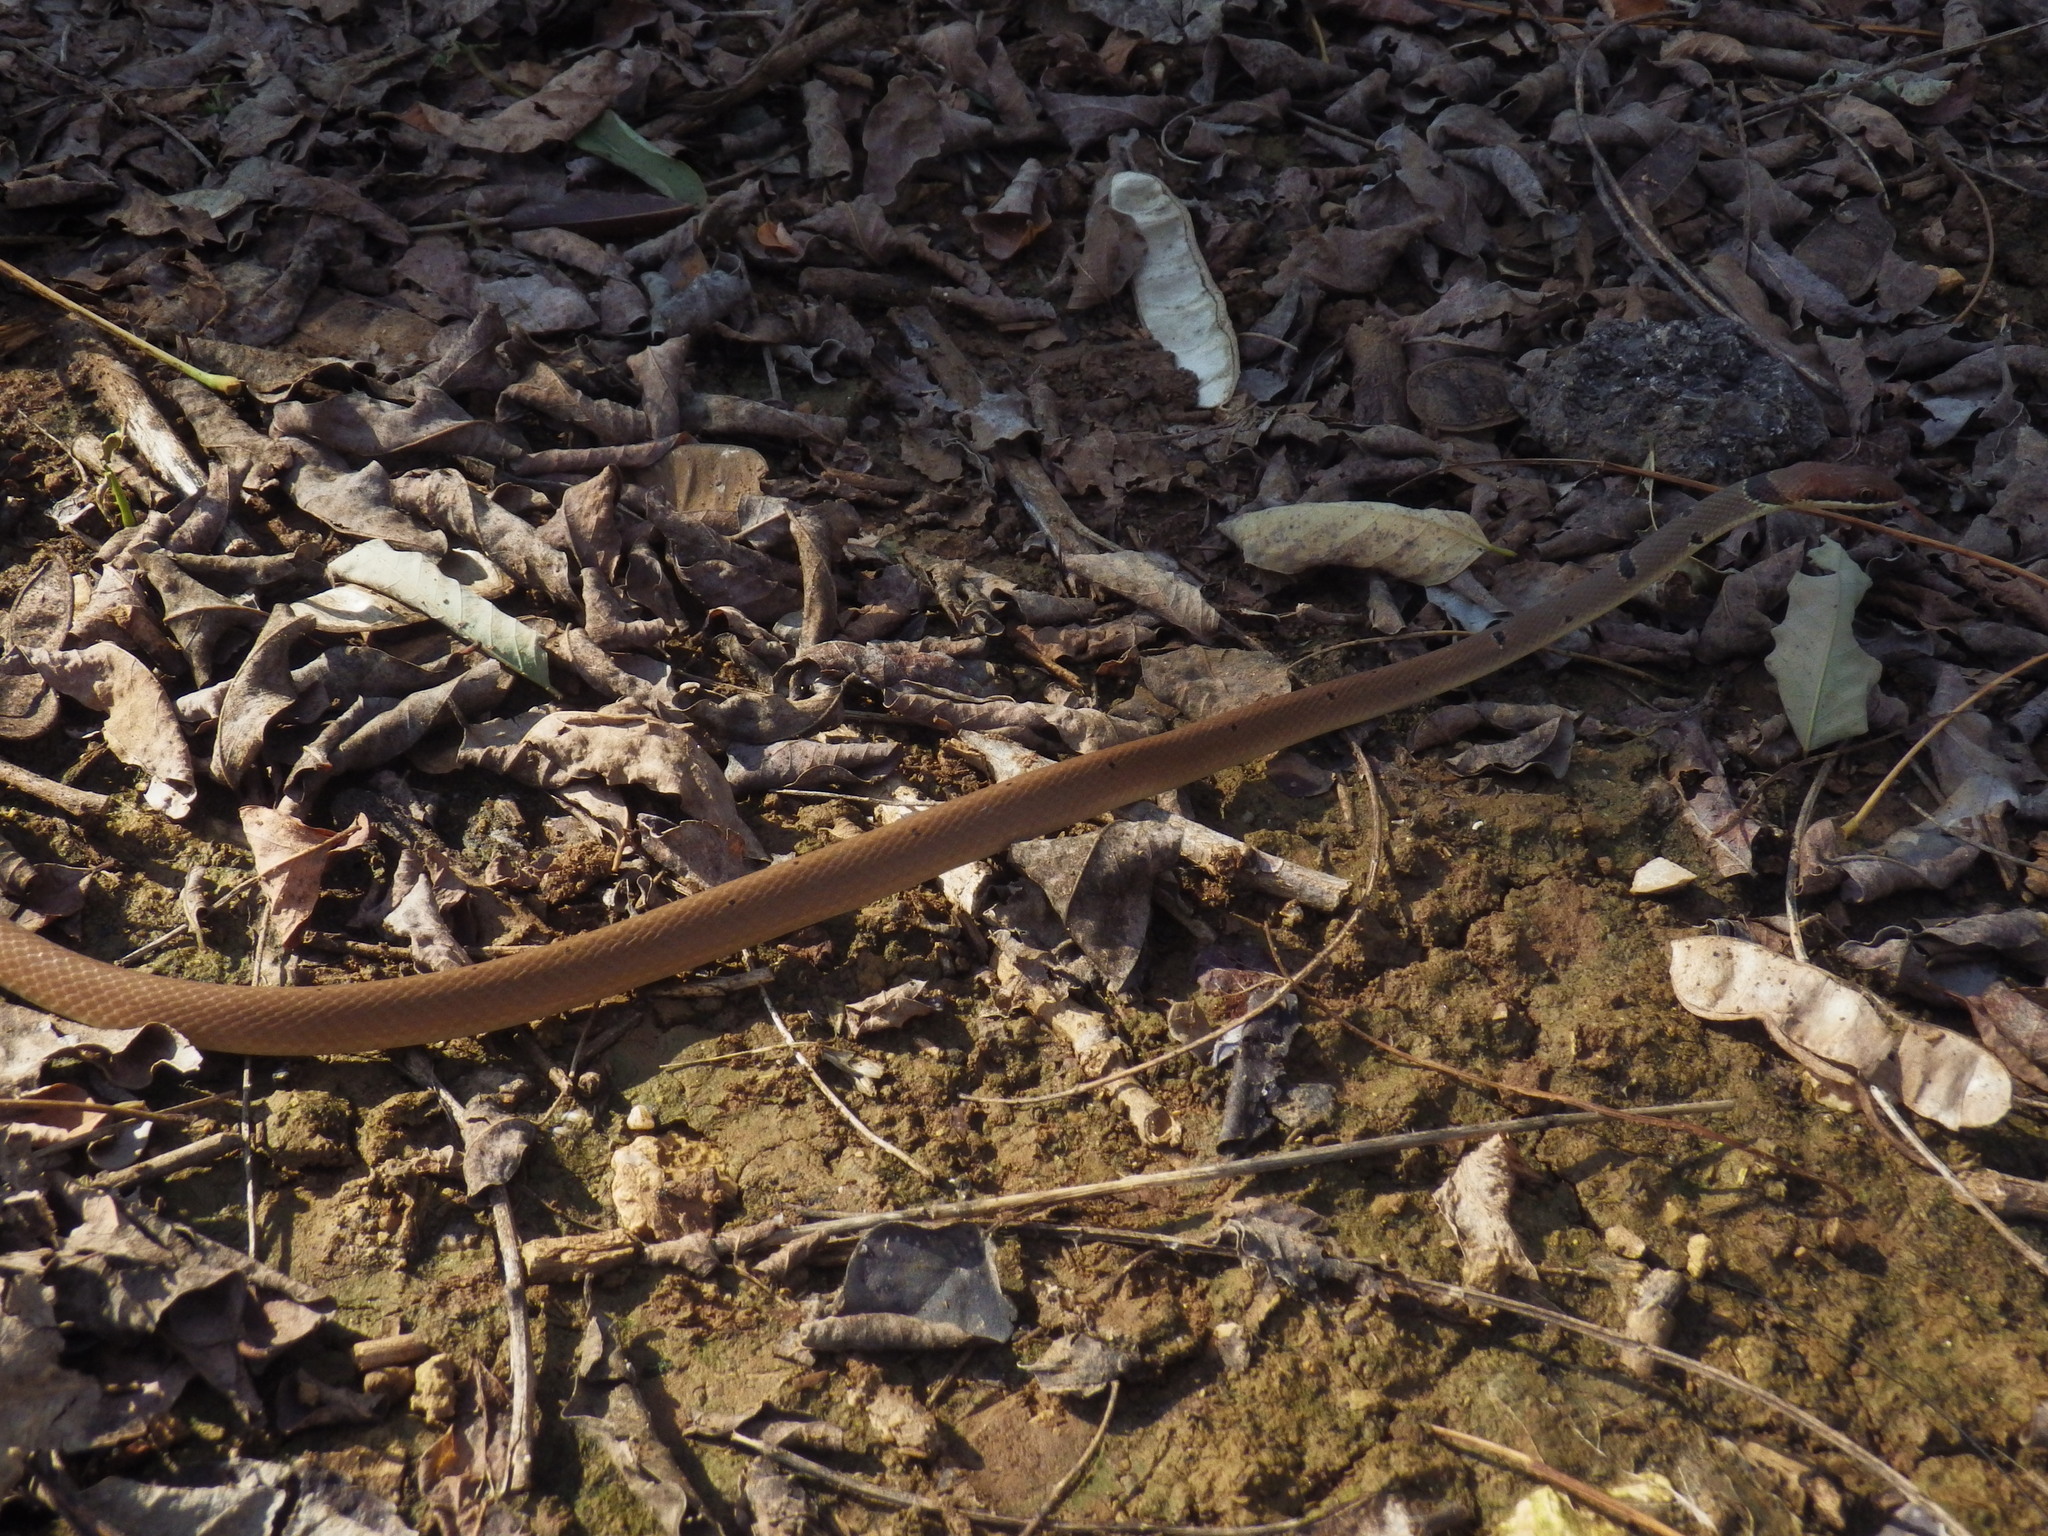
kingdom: Animalia
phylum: Chordata
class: Squamata
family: Colubridae
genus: Platyceps
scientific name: Platyceps collaris
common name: Collared dwarf racer
